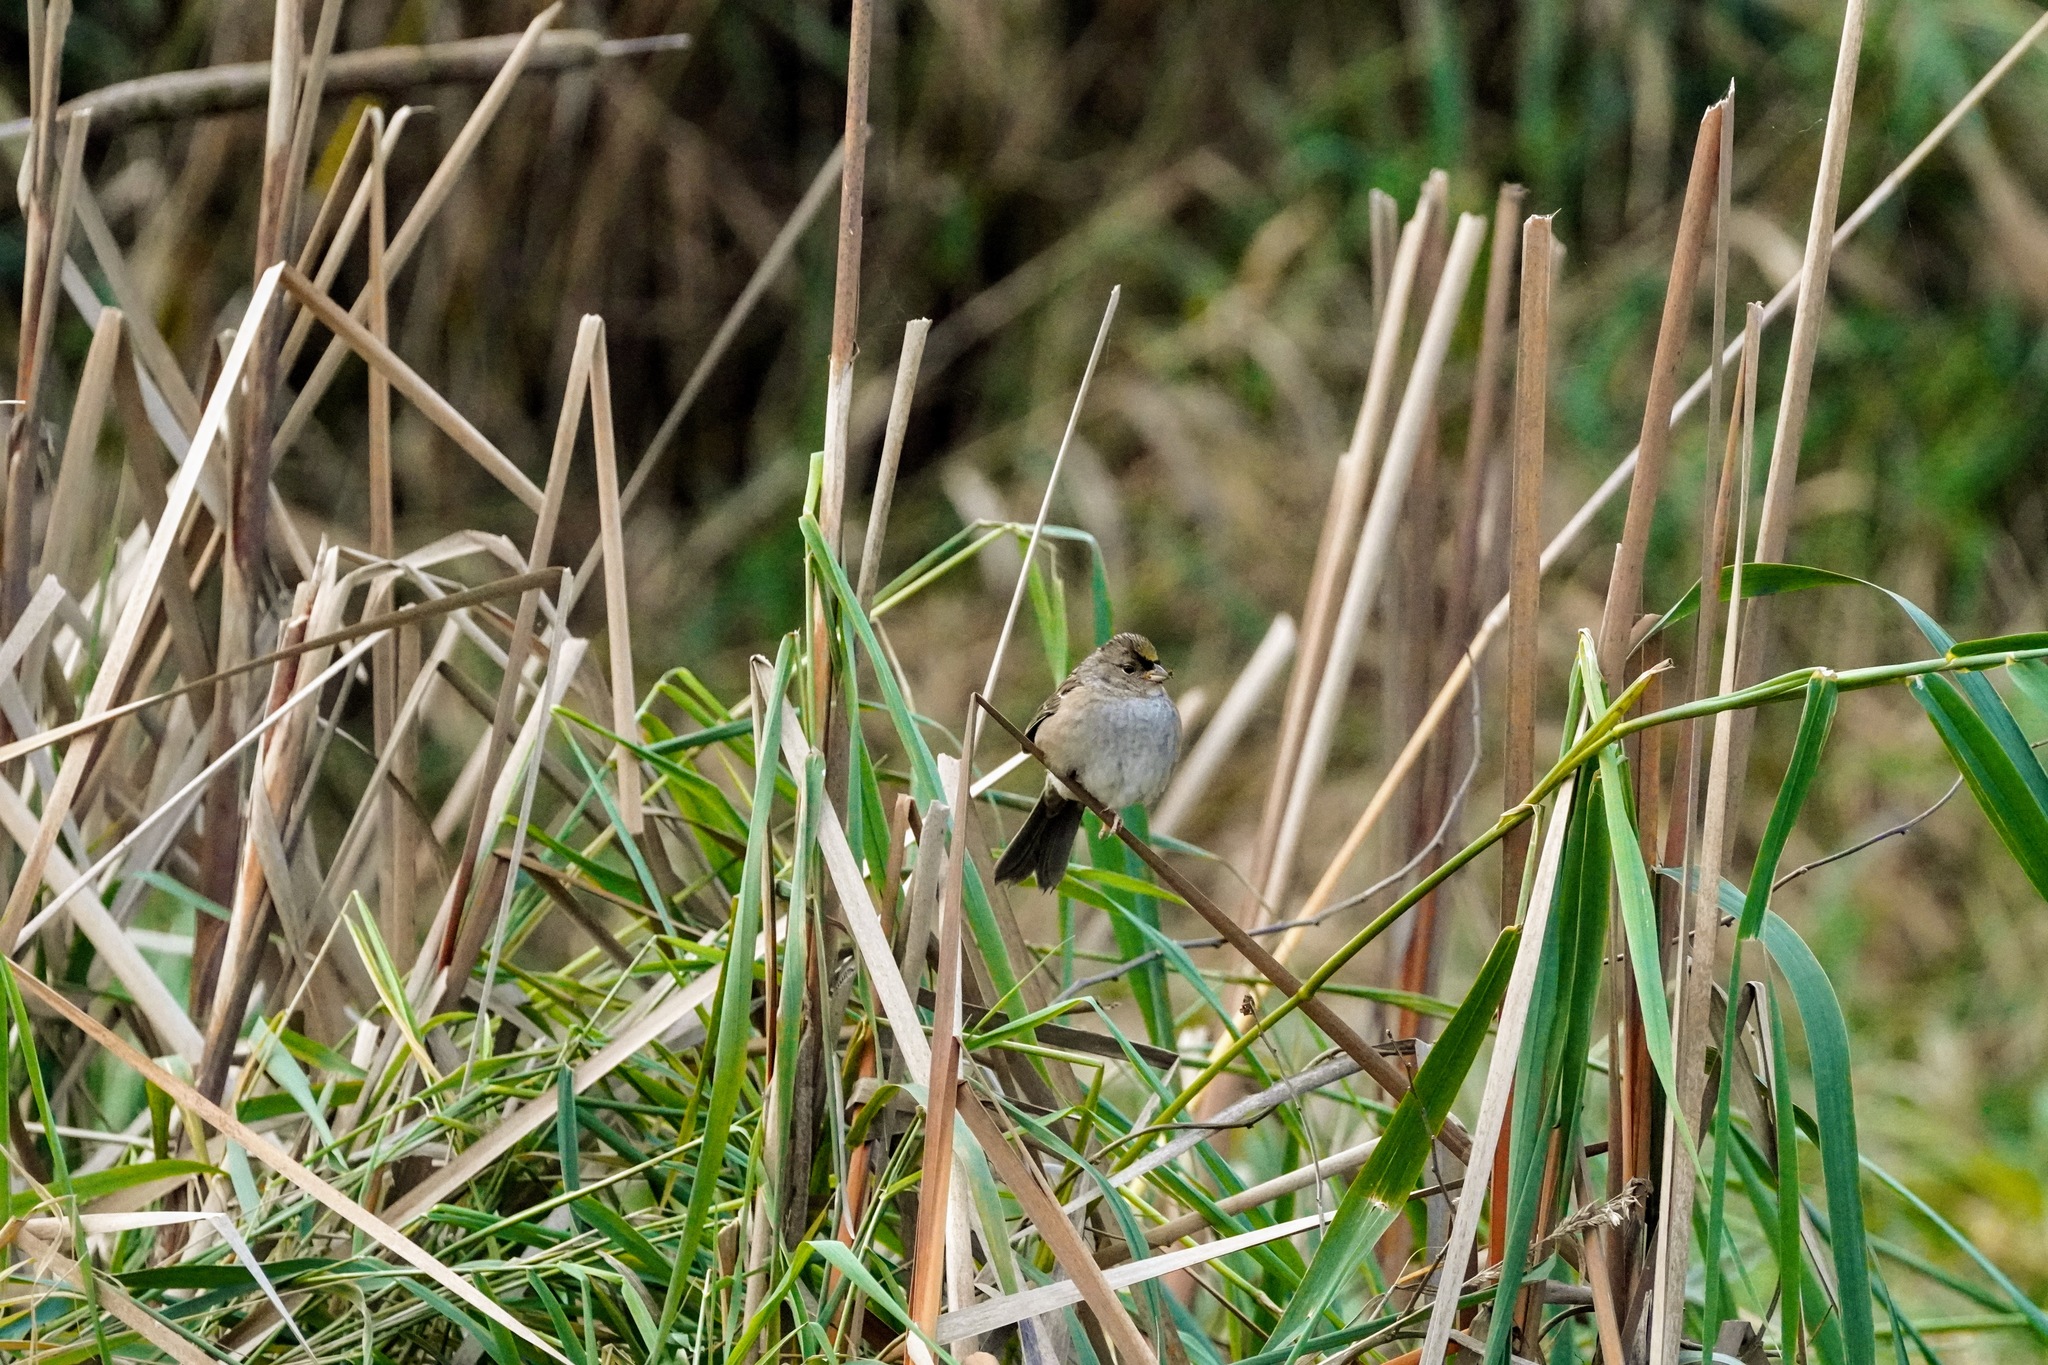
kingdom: Animalia
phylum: Chordata
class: Aves
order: Passeriformes
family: Passerellidae
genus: Zonotrichia
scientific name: Zonotrichia atricapilla
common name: Golden-crowned sparrow
